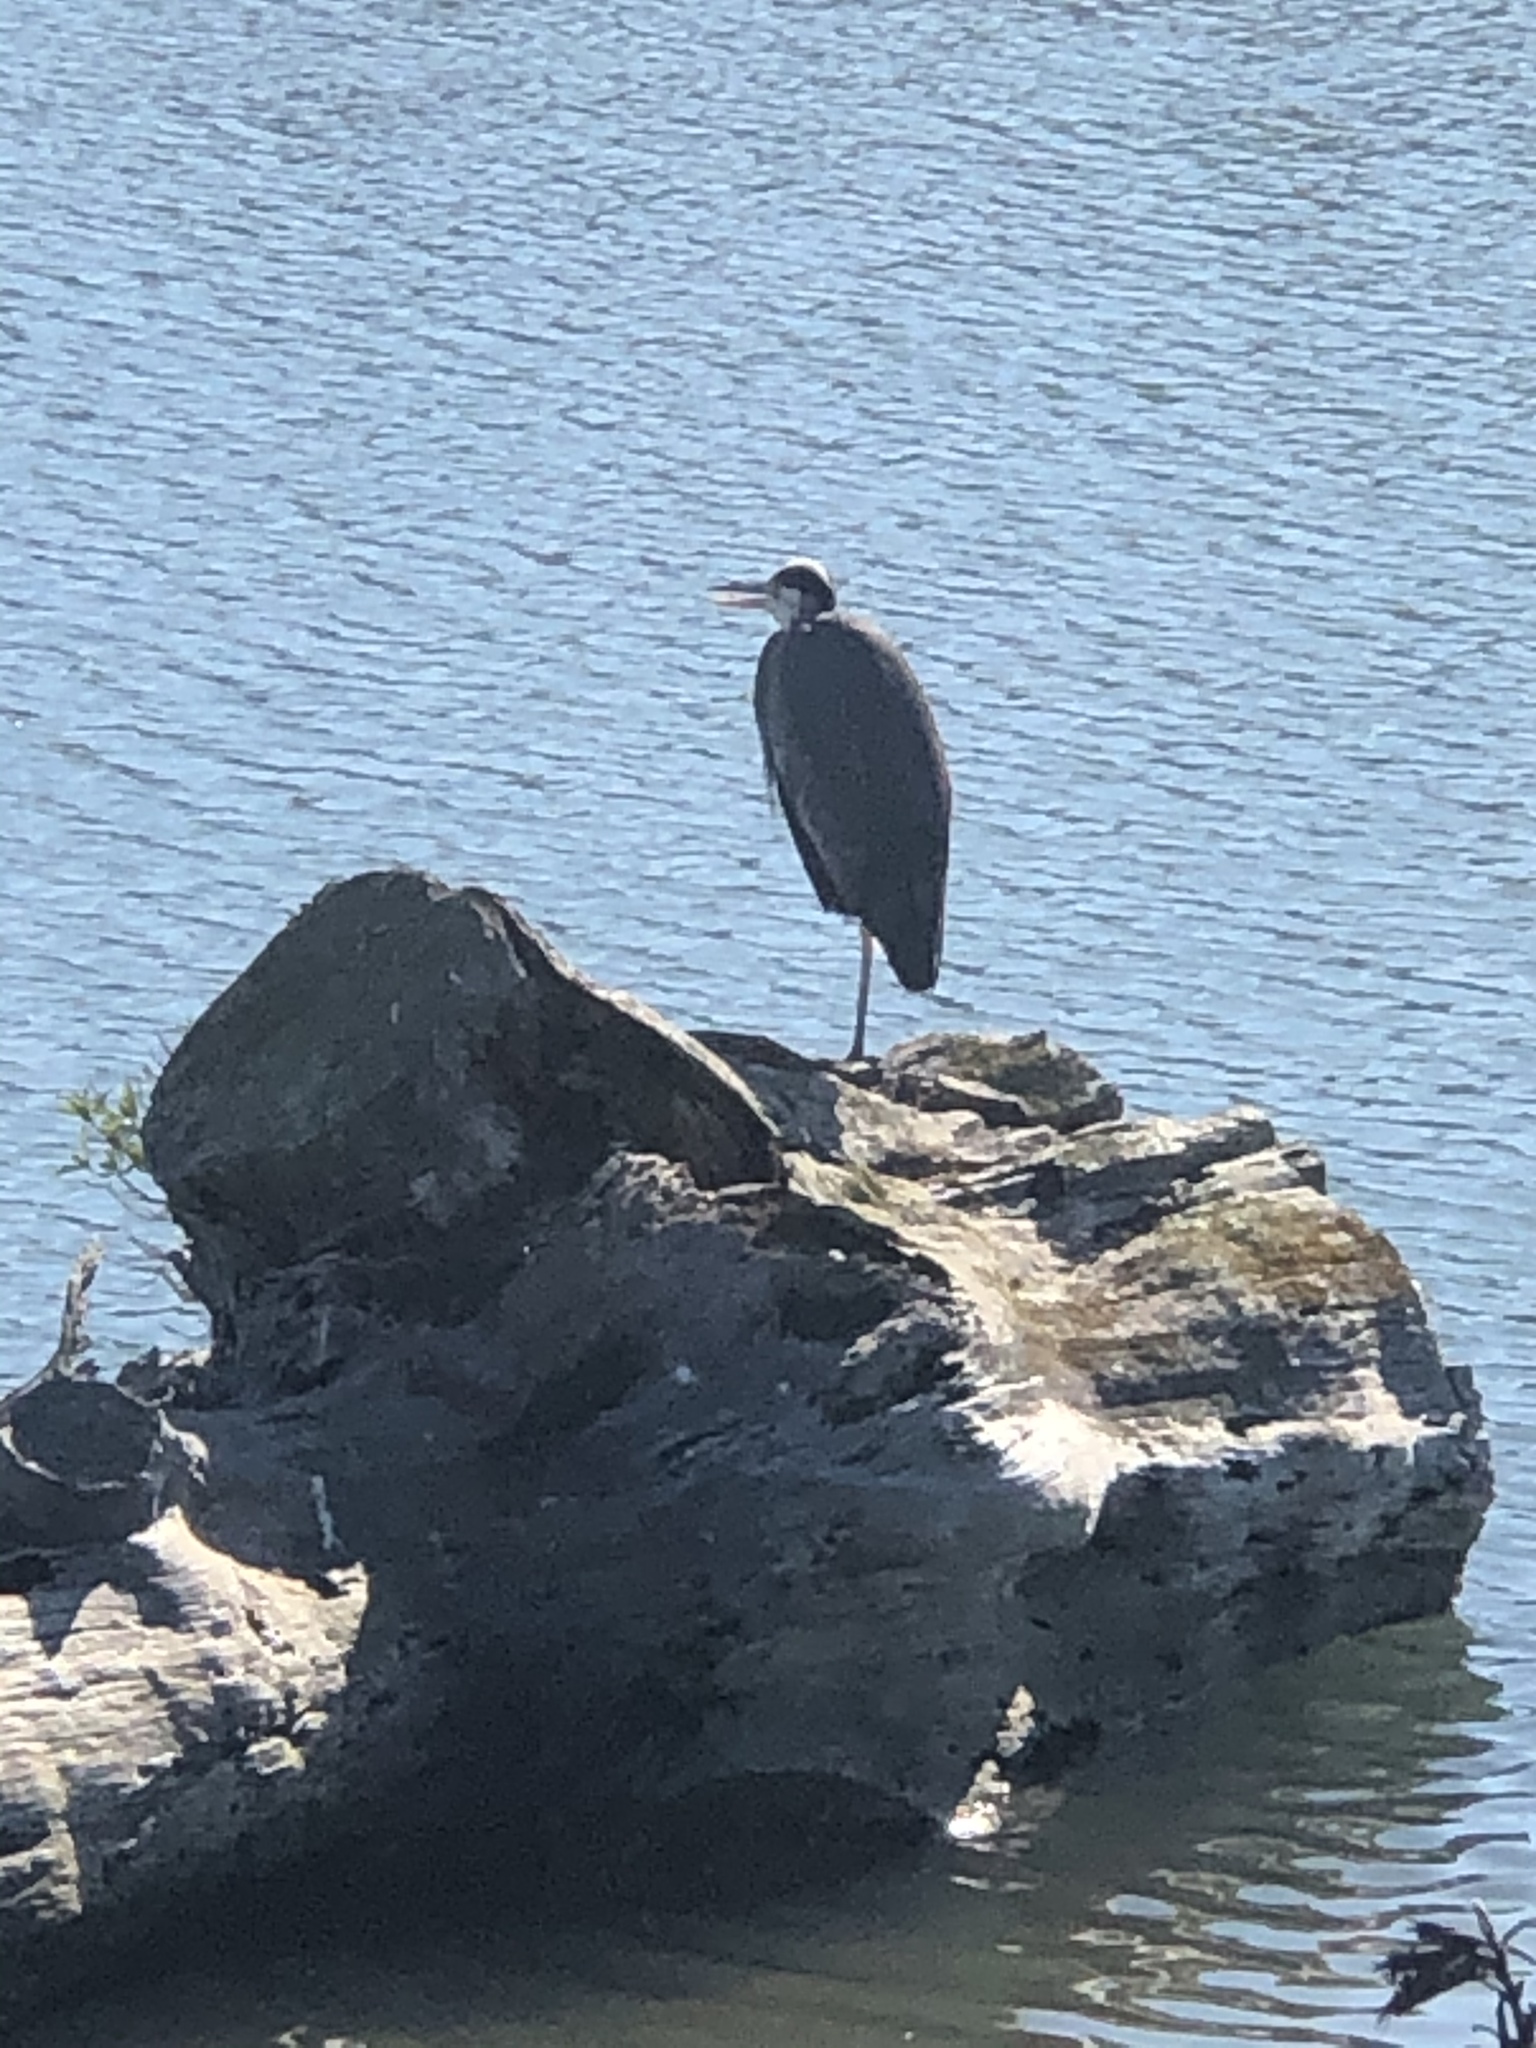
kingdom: Animalia
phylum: Chordata
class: Aves
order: Pelecaniformes
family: Ardeidae
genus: Ardea
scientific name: Ardea herodias
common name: Great blue heron
